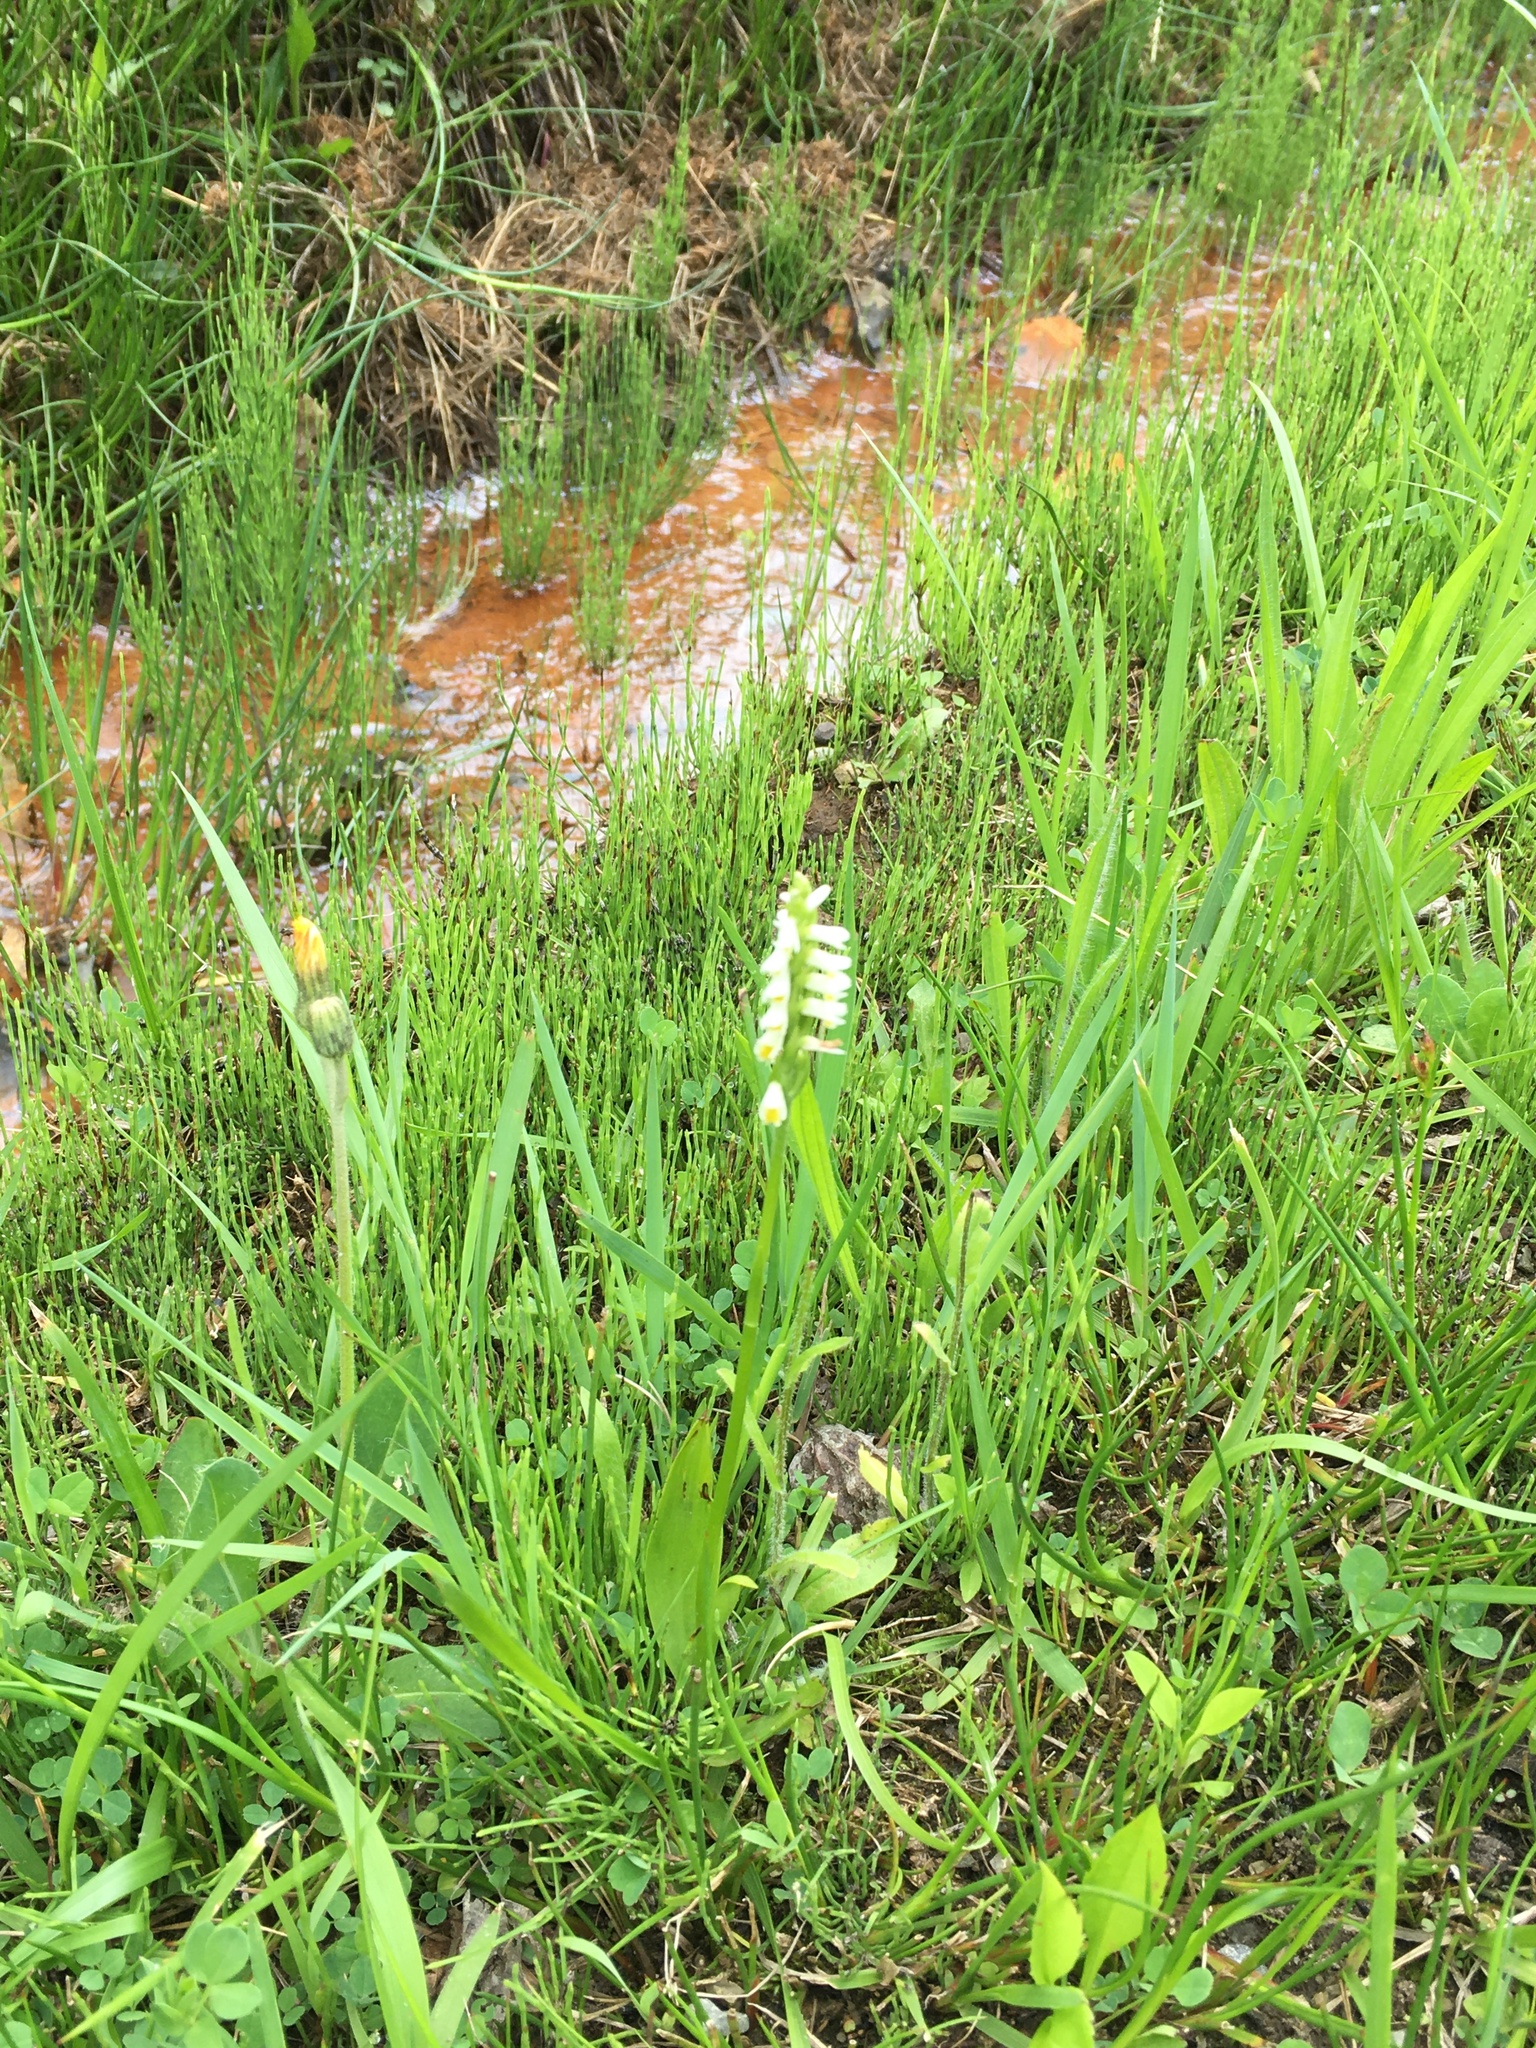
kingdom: Plantae
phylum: Tracheophyta
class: Liliopsida
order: Asparagales
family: Orchidaceae
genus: Spiranthes
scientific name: Spiranthes lucida
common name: Broad-leaved ladies'-tresses
